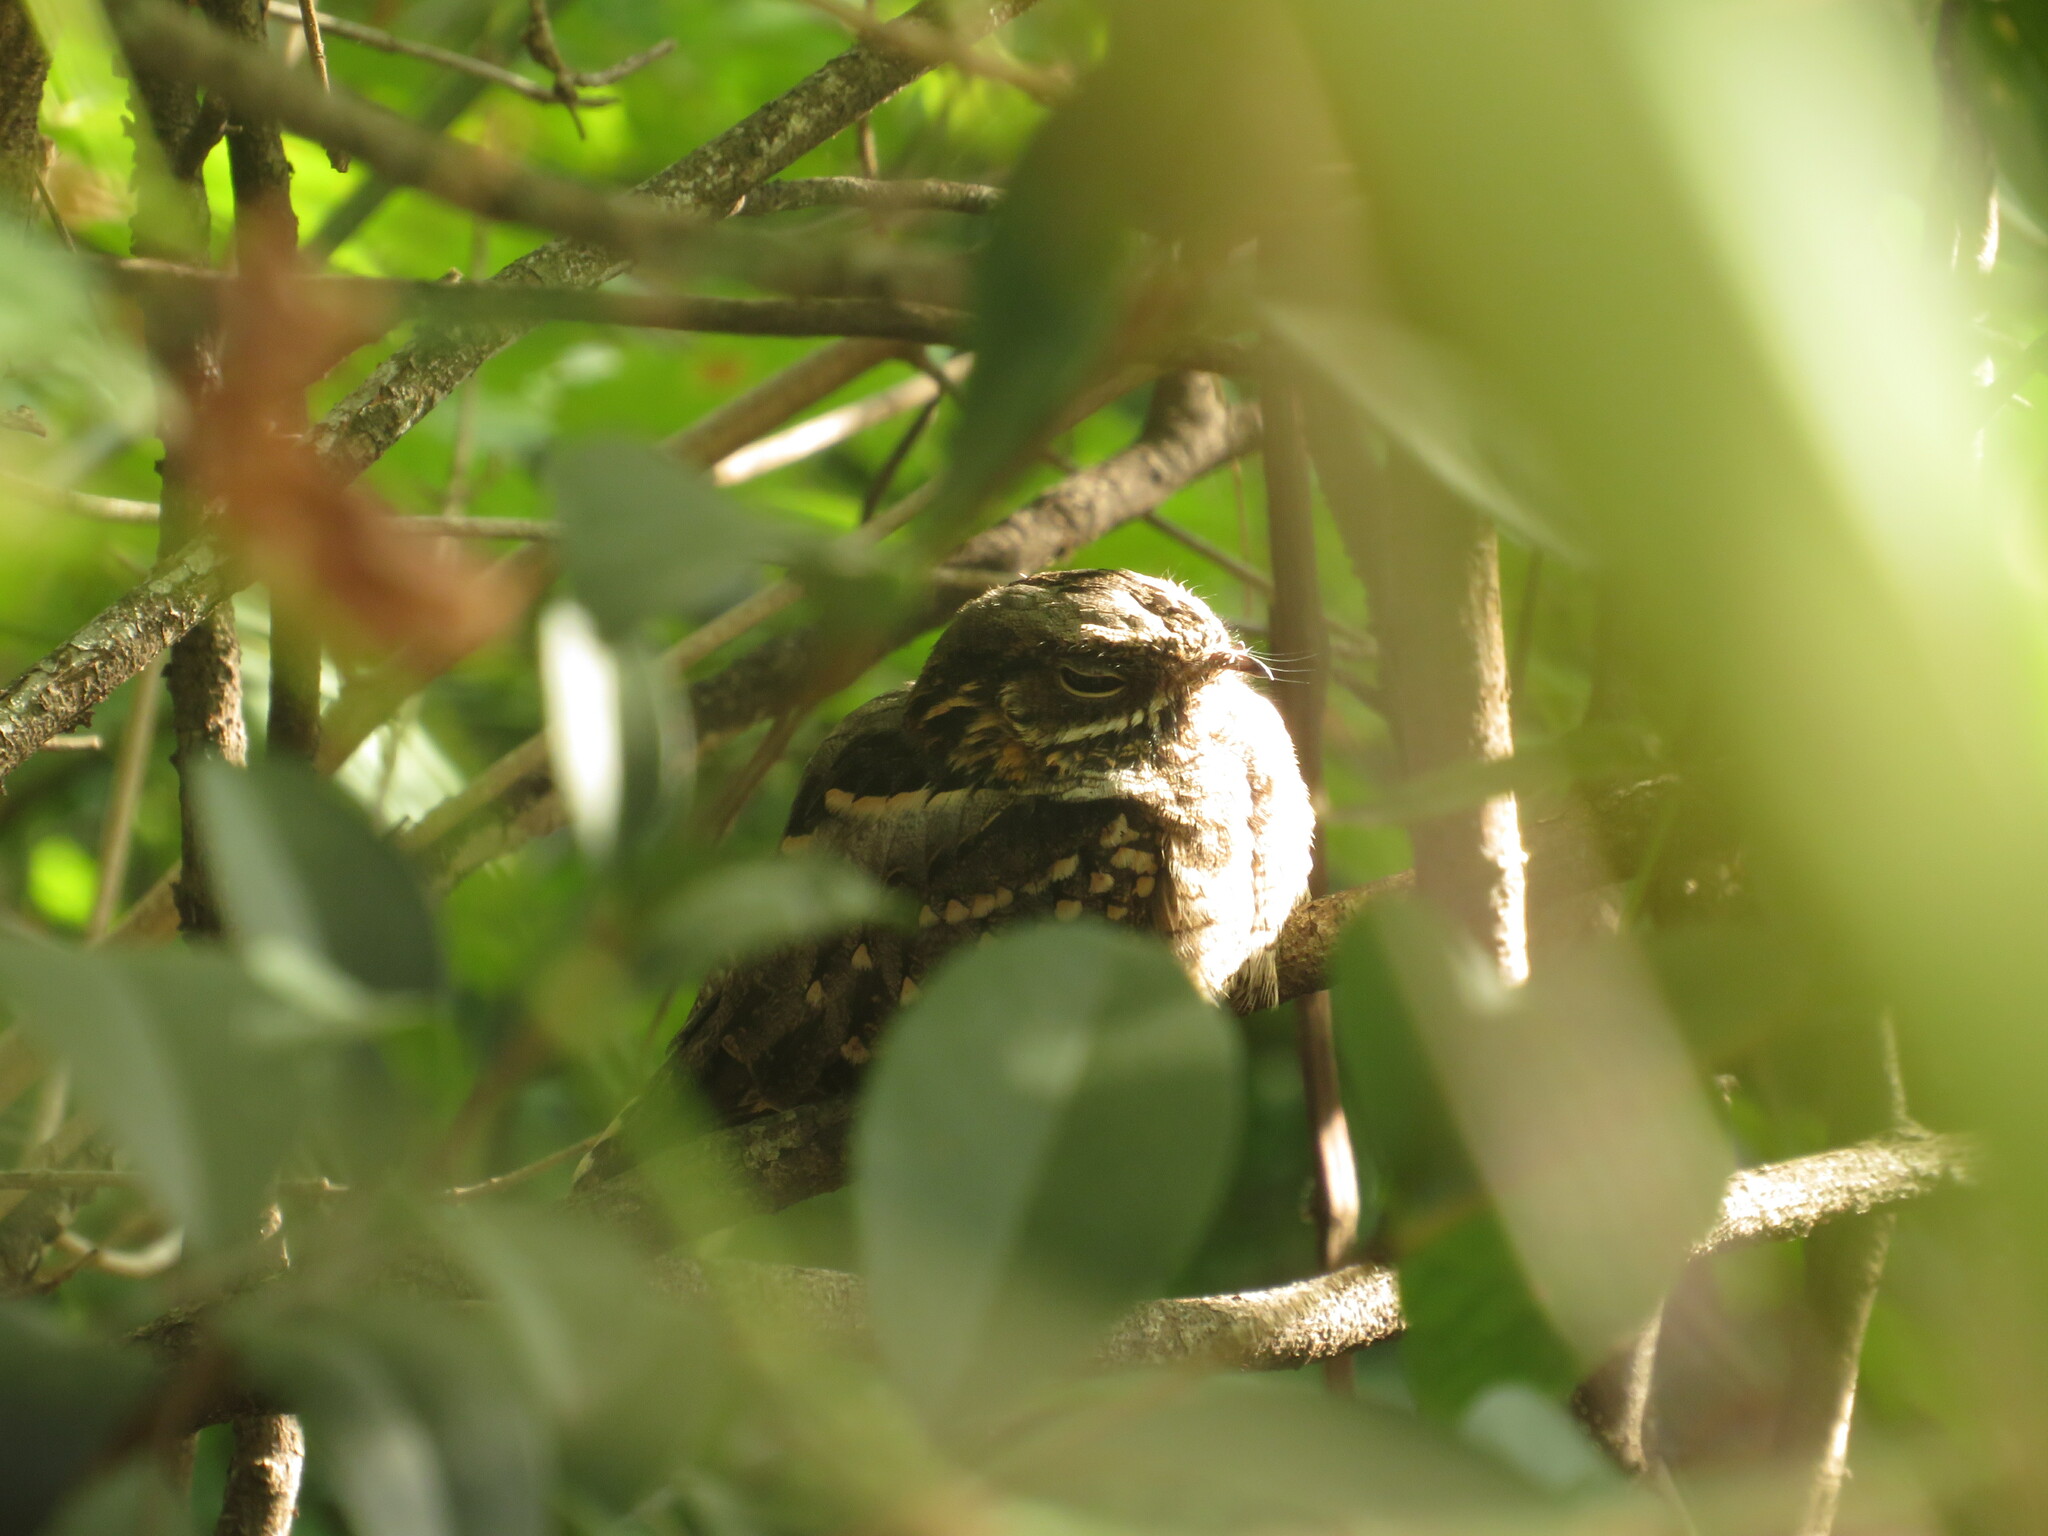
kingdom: Animalia
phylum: Chordata
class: Aves
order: Caprimulgiformes
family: Caprimulgidae
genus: Setopagis
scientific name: Setopagis parvula
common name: Little nightjar
